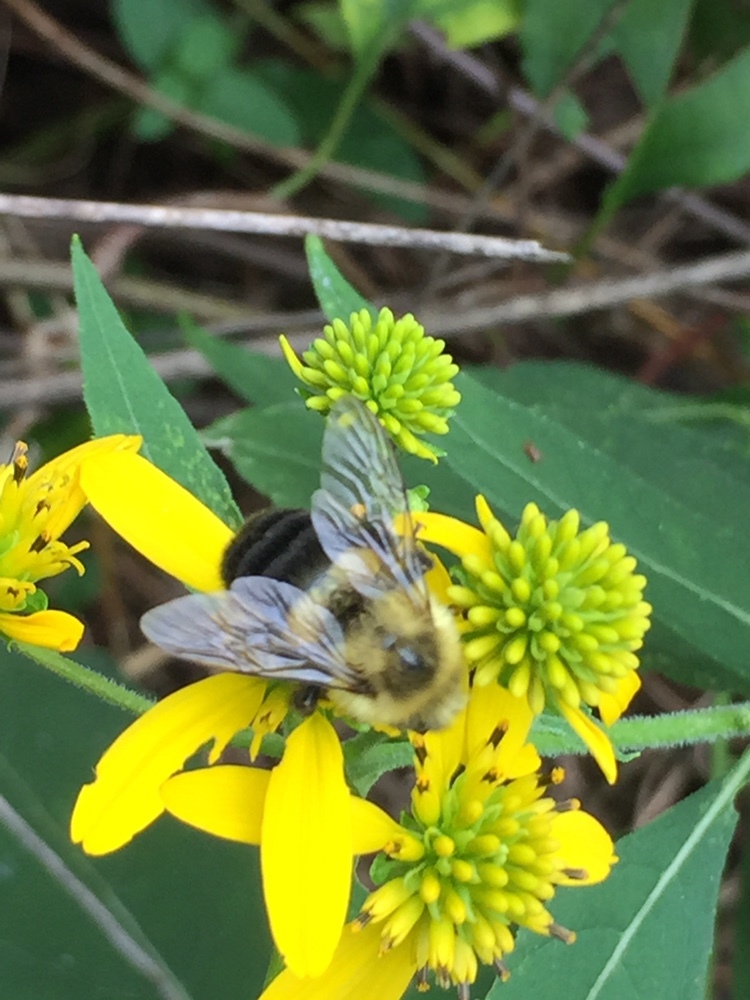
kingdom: Animalia
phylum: Arthropoda
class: Insecta
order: Hymenoptera
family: Apidae
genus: Bombus
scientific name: Bombus impatiens
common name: Common eastern bumble bee
